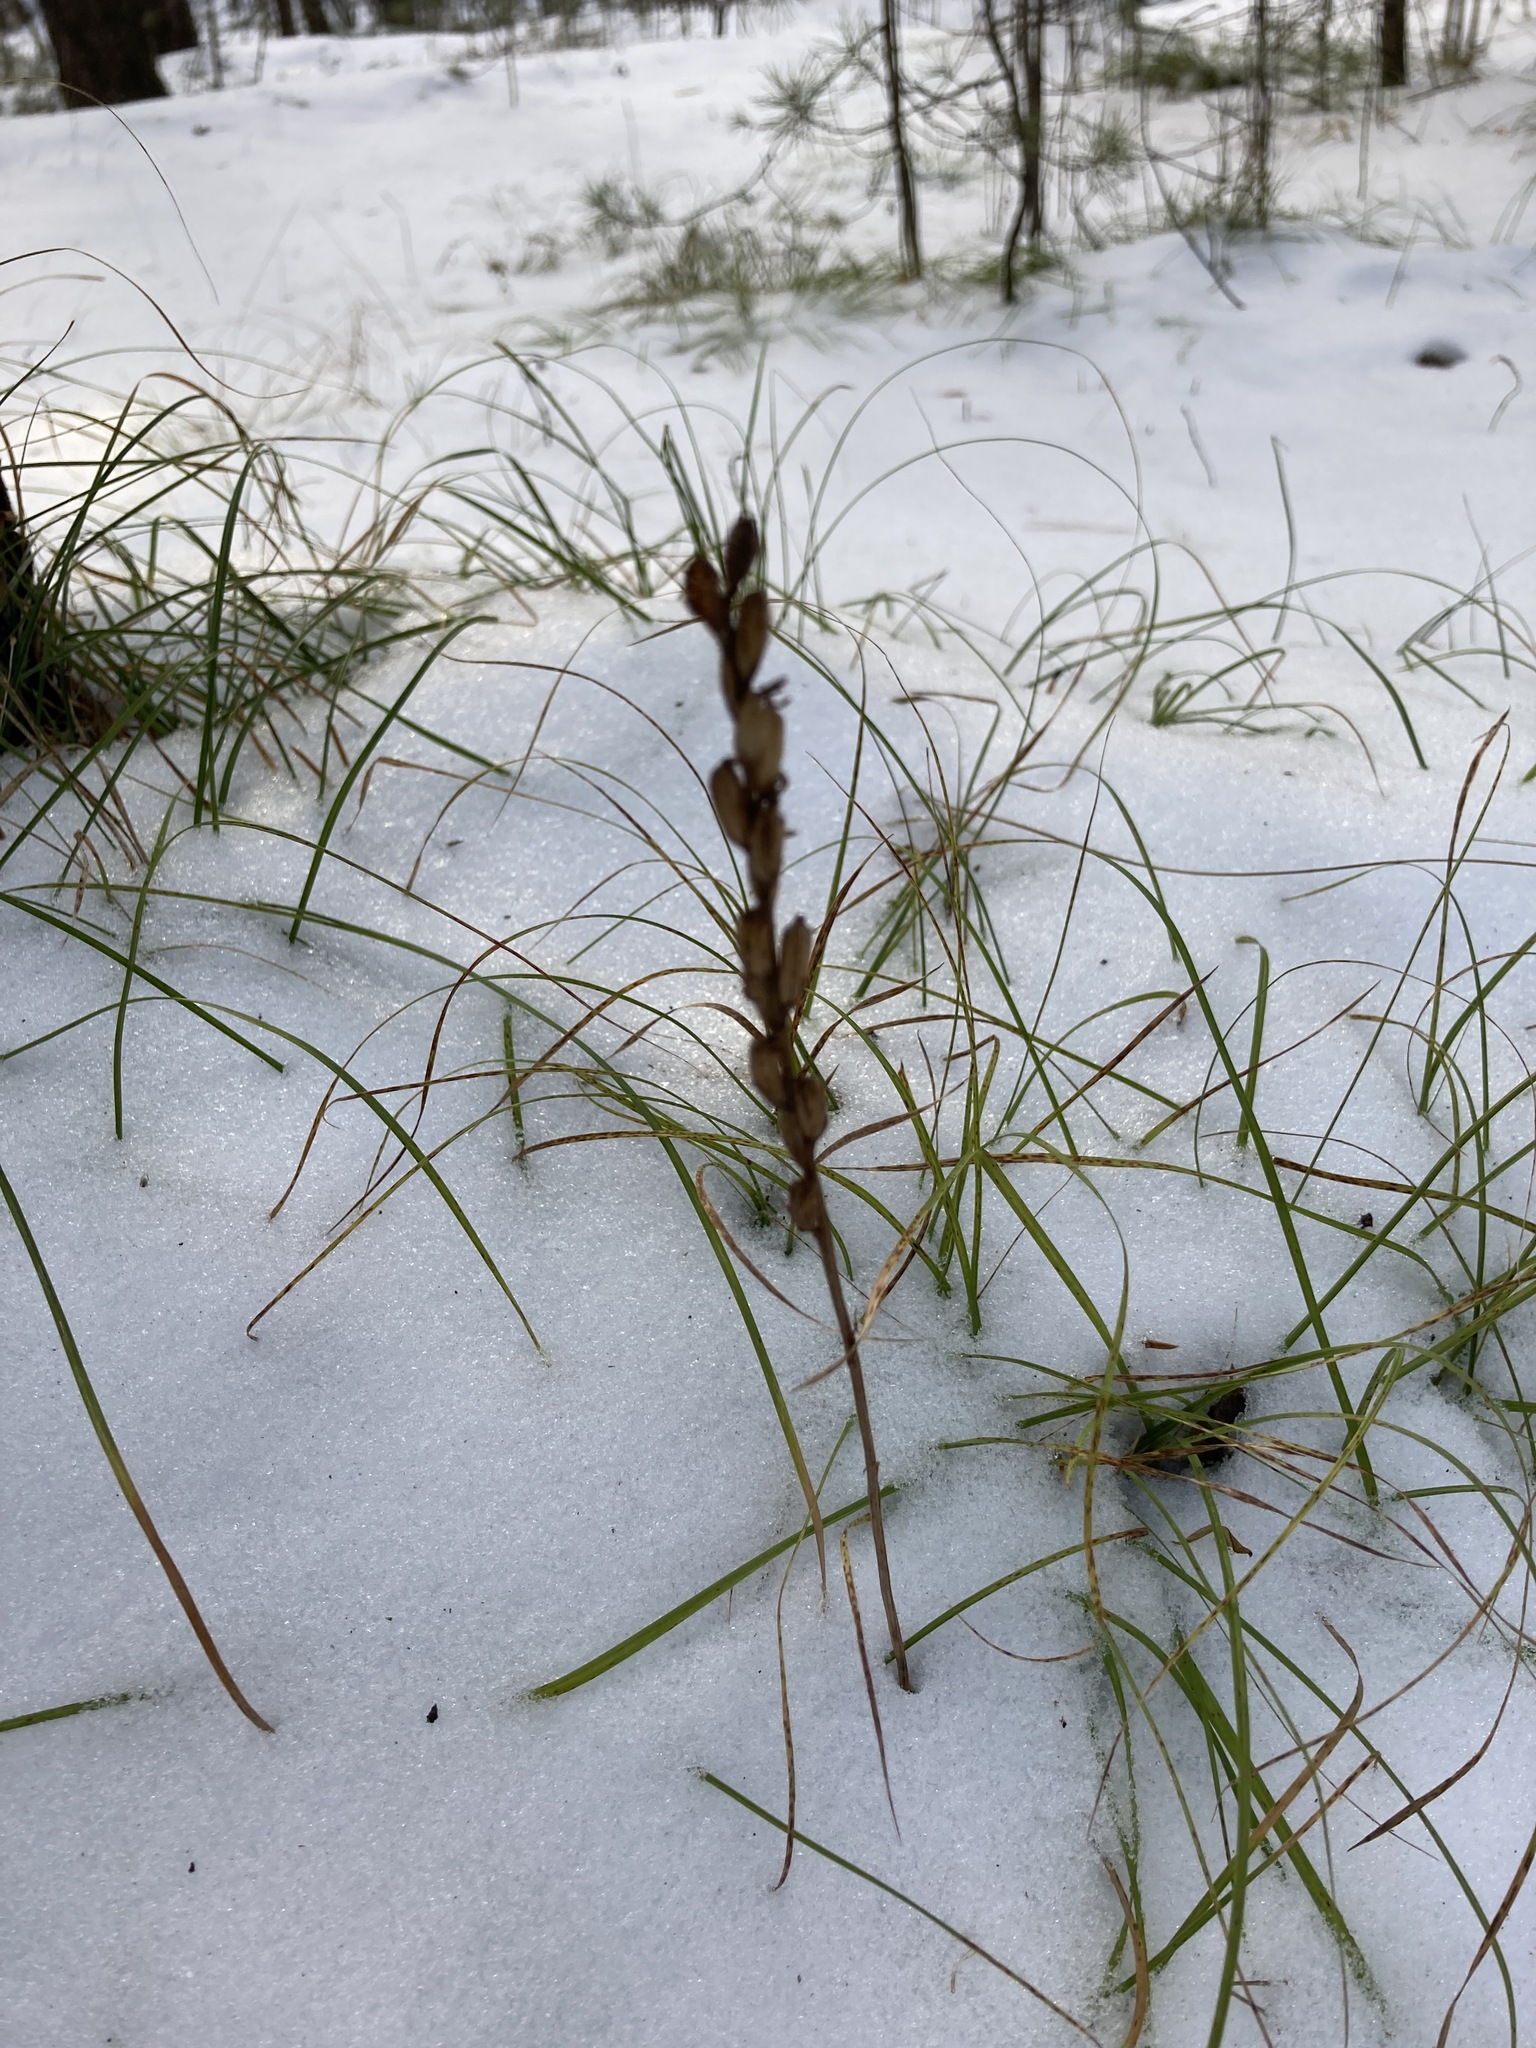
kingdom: Plantae
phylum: Tracheophyta
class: Liliopsida
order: Asparagales
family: Orchidaceae
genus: Hemipilia
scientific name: Hemipilia cucullata
